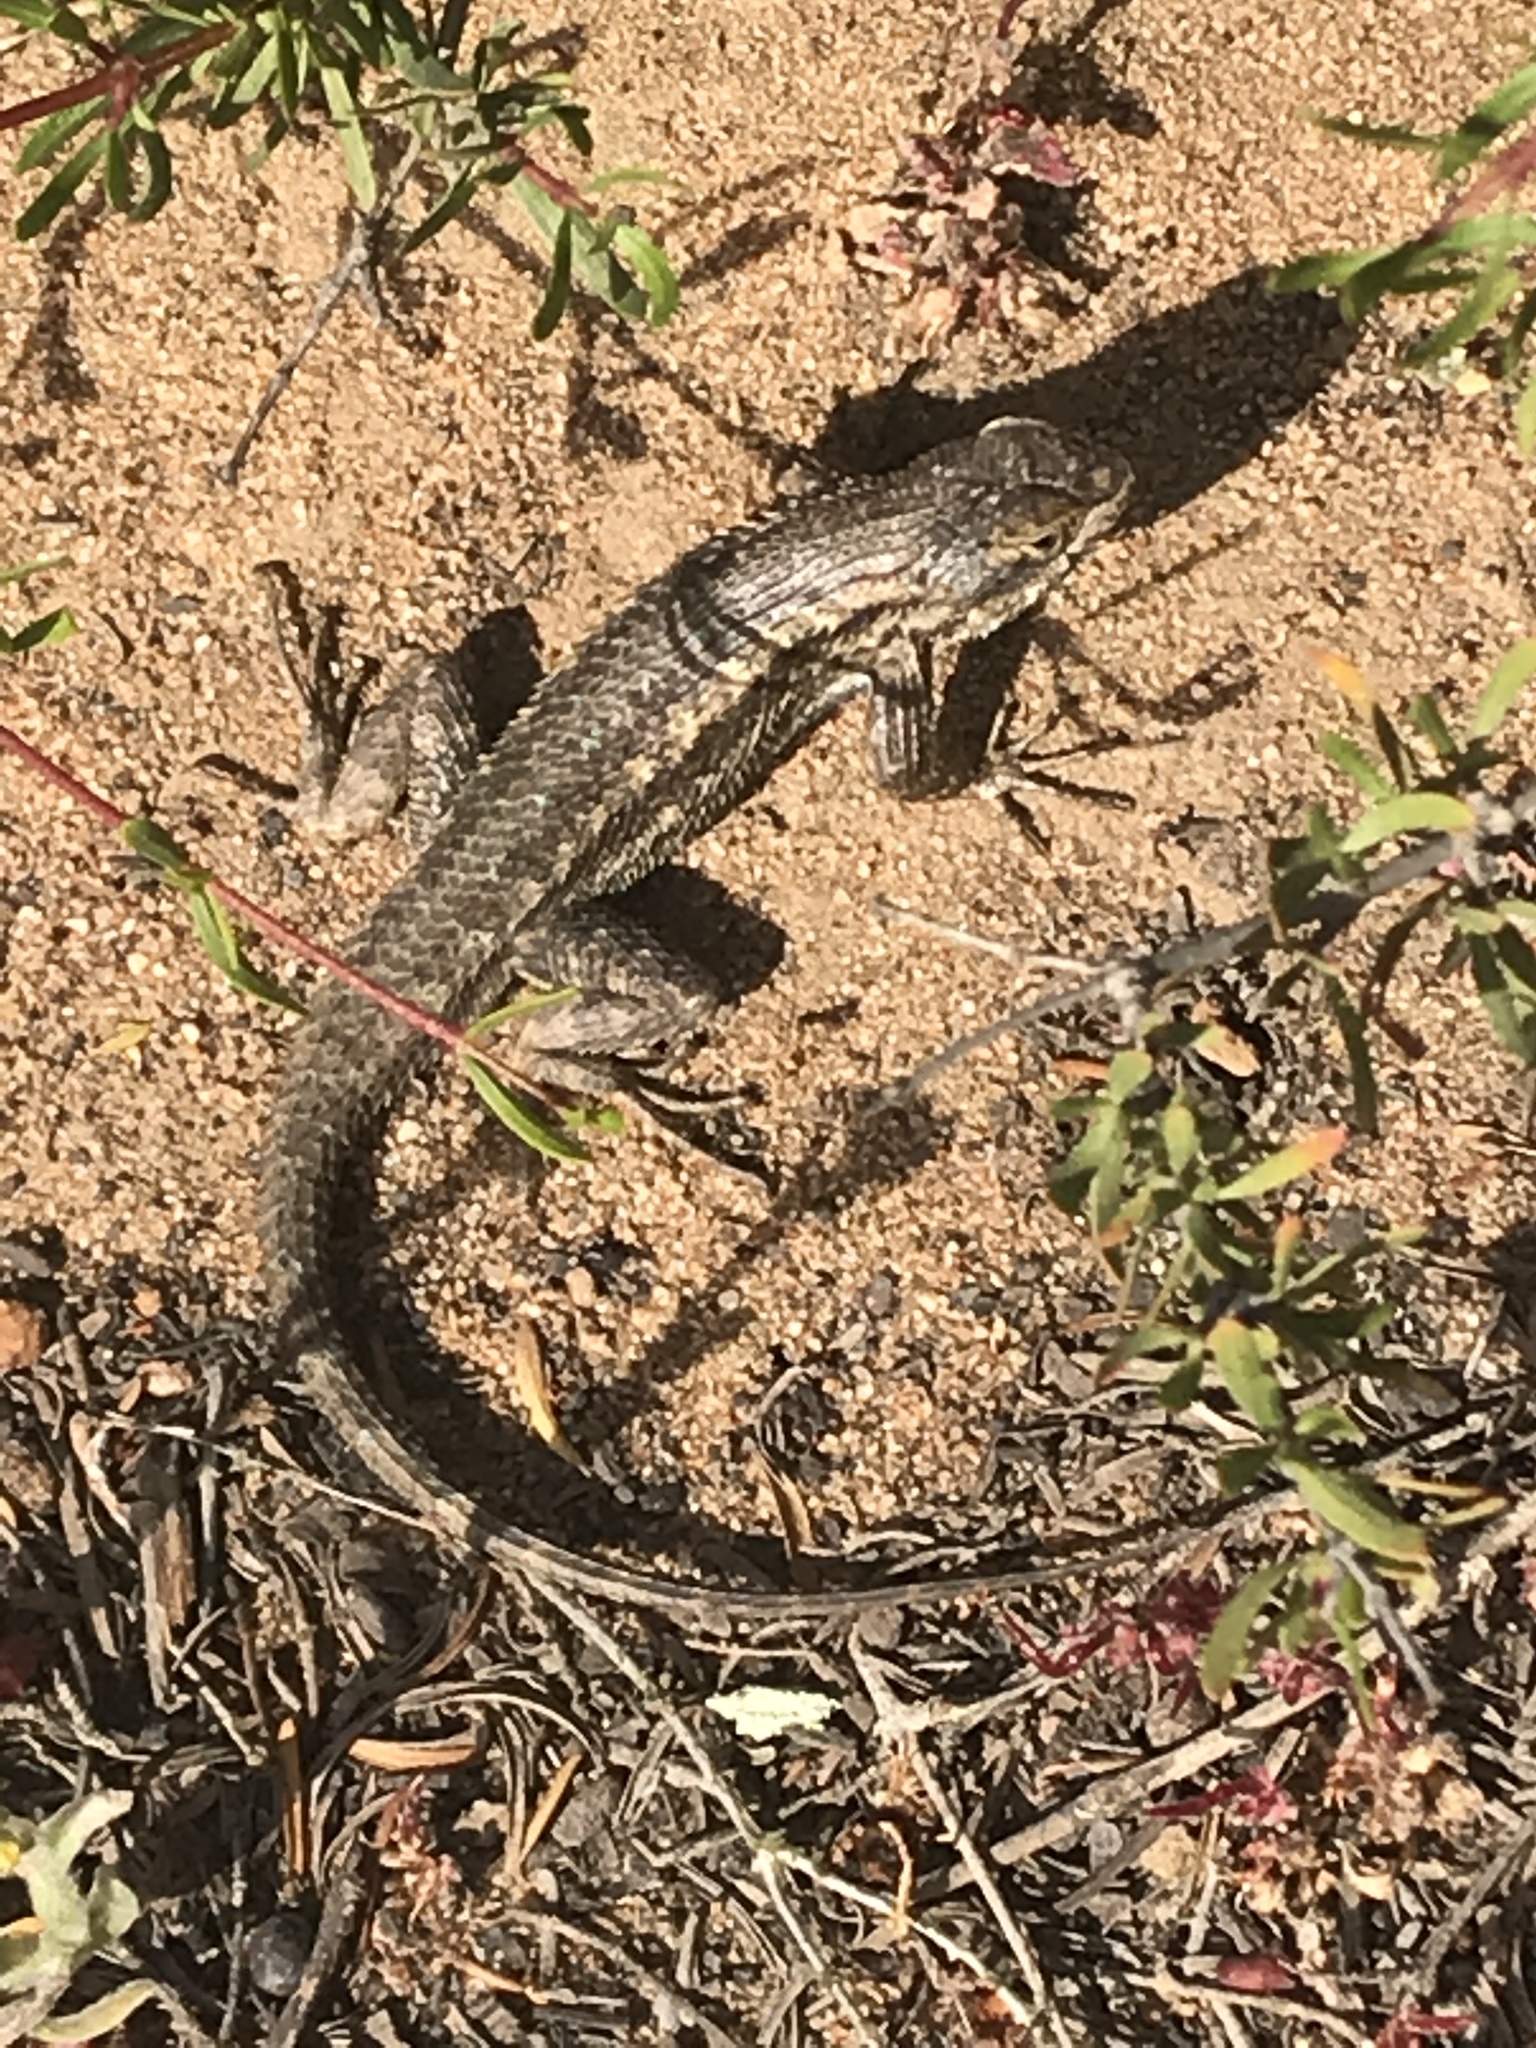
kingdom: Animalia
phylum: Chordata
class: Squamata
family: Phrynosomatidae
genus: Sceloporus
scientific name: Sceloporus occidentalis
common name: Western fence lizard
